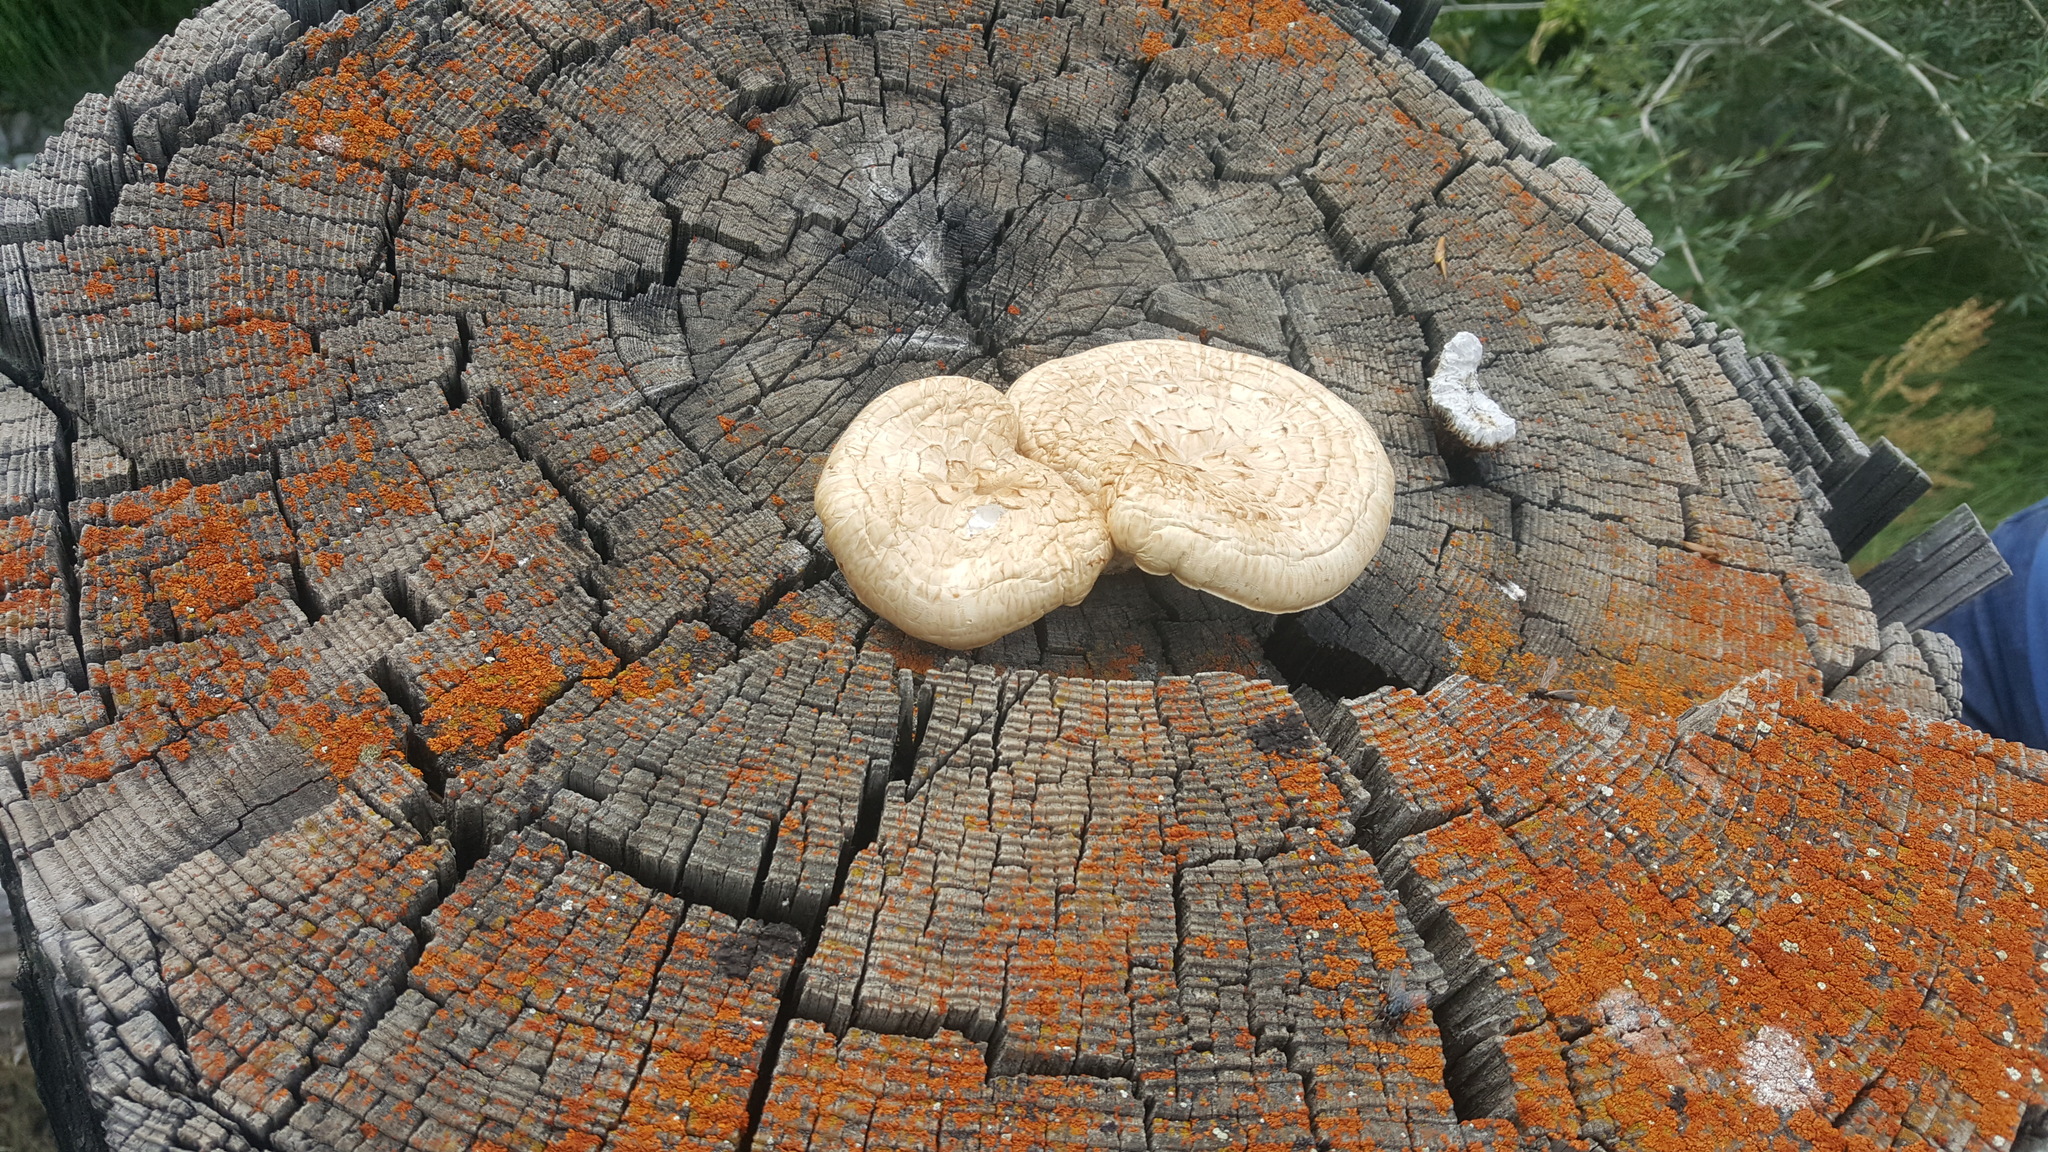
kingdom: Fungi
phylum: Basidiomycota
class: Agaricomycetes
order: Gloeophyllales
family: Gloeophyllaceae
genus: Neolentinus
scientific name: Neolentinus lepideus
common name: Scaly sawgill
